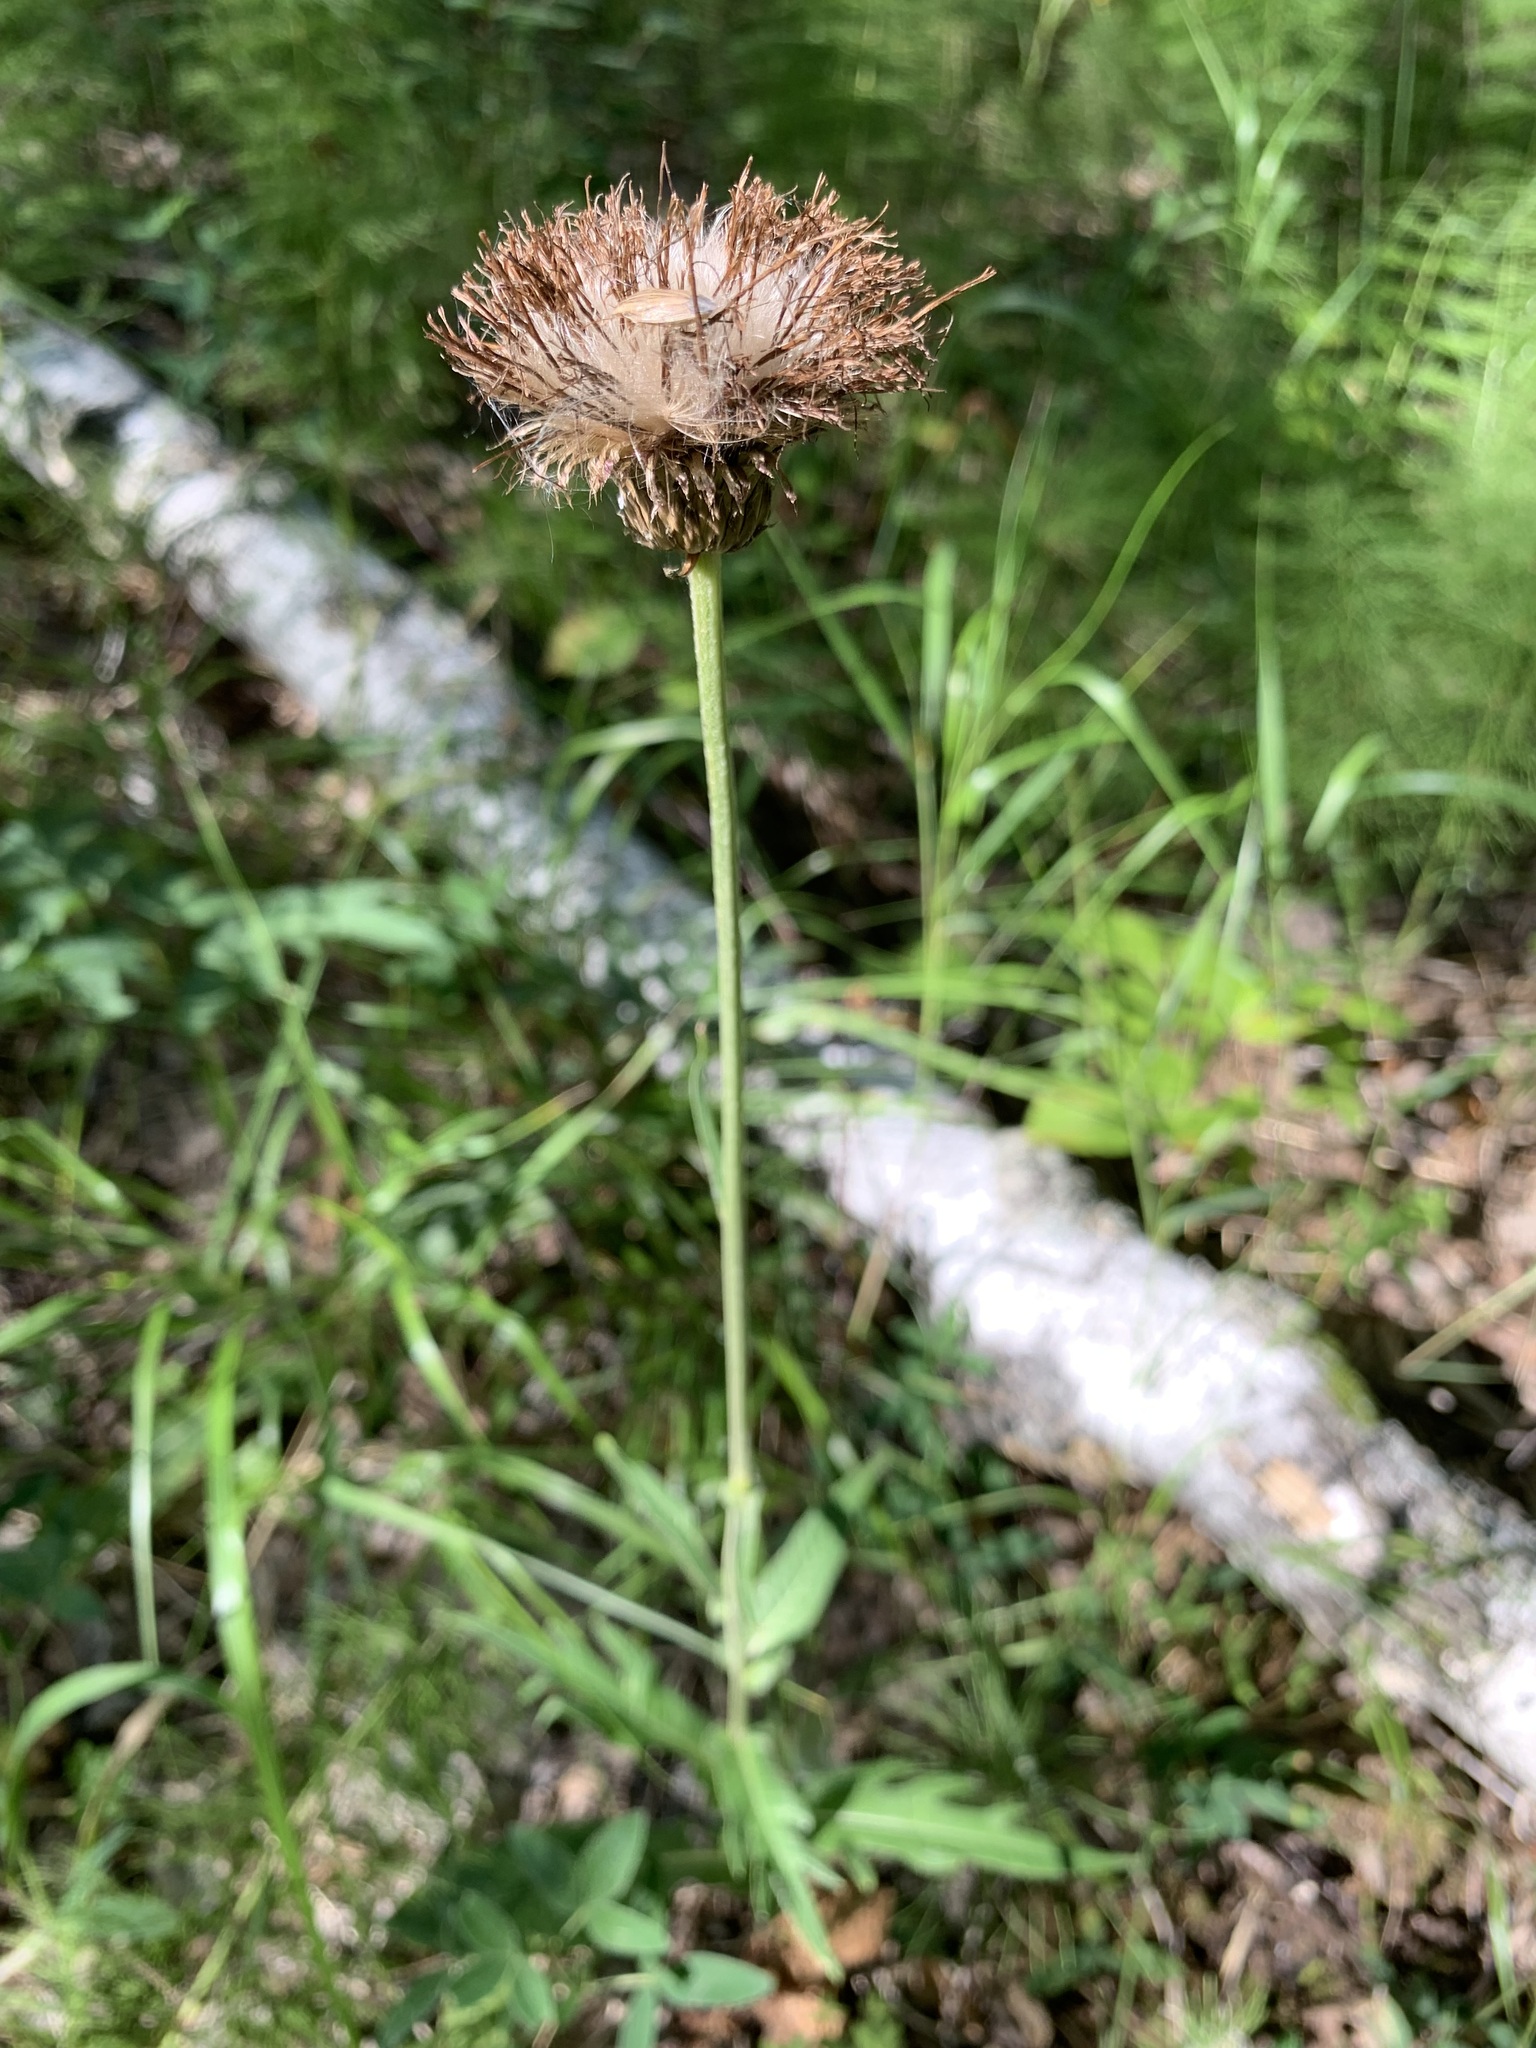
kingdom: Plantae
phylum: Tracheophyta
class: Magnoliopsida
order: Asterales
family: Asteraceae
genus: Cirsium
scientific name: Cirsium heterophyllum
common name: Melancholy thistle
